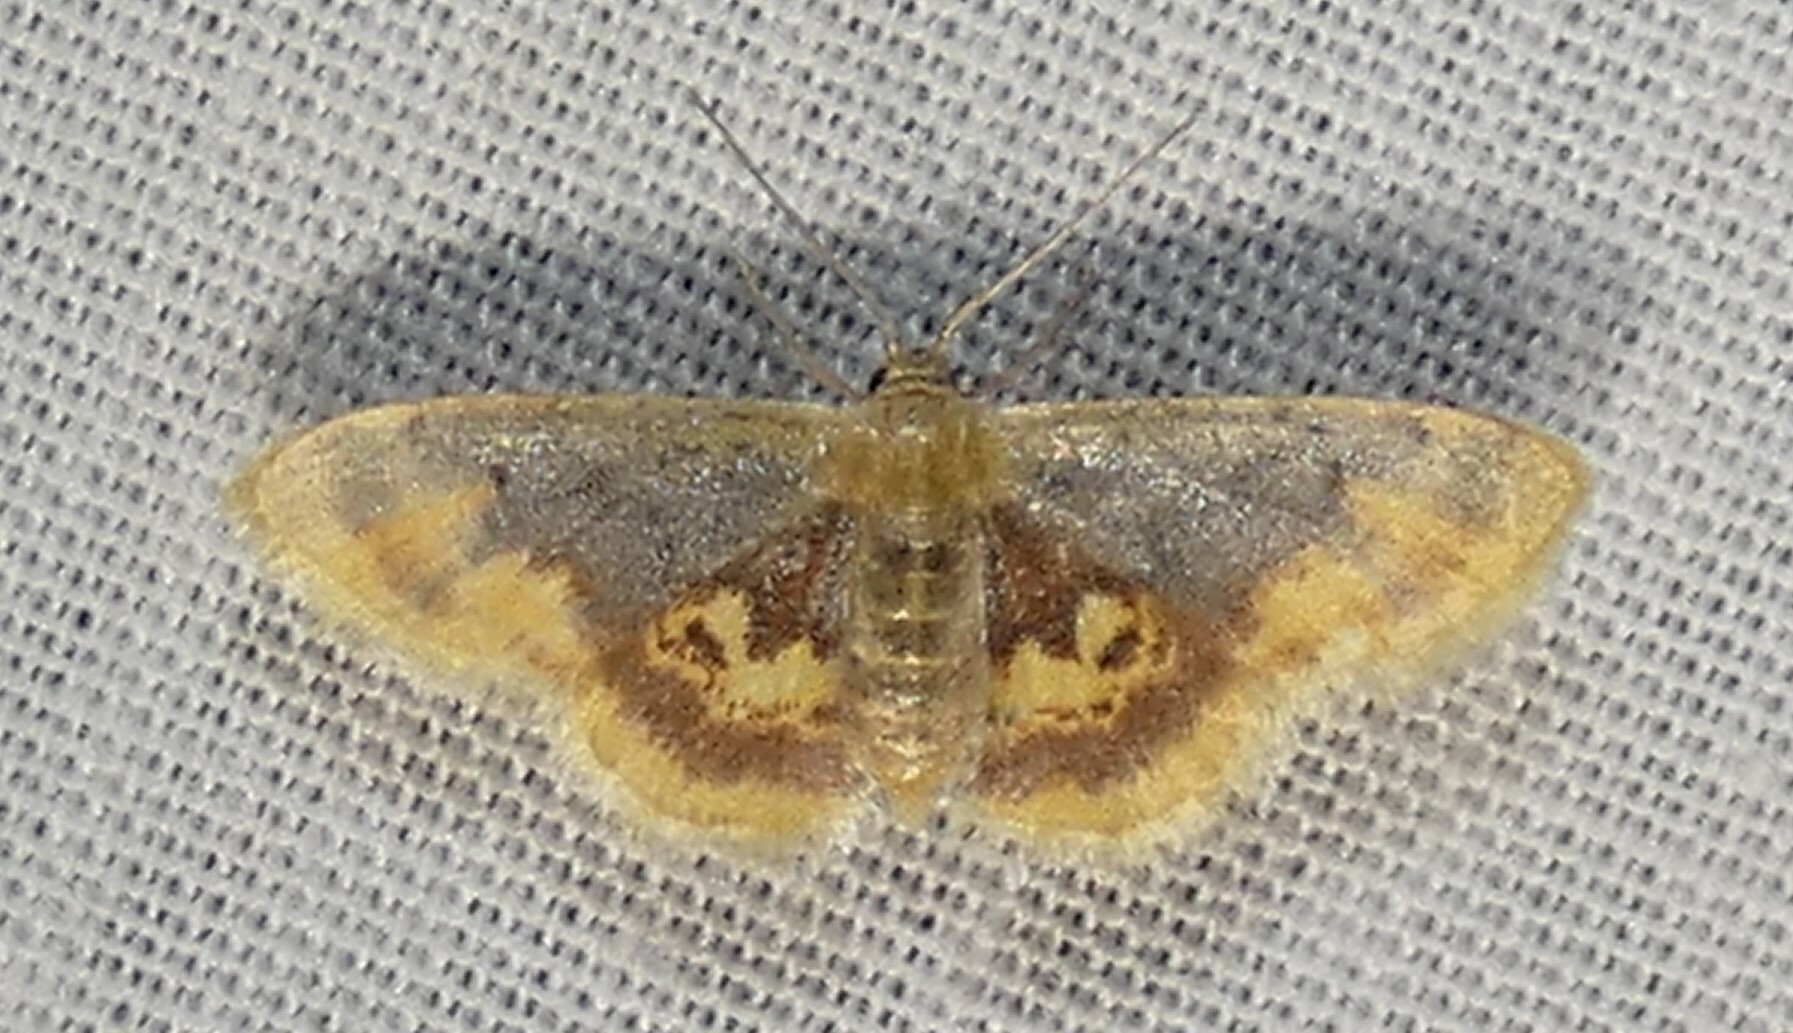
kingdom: Animalia
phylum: Arthropoda
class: Insecta
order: Lepidoptera
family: Geometridae
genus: Idaea
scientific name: Idaea scintillularia
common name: Diminutive wave
